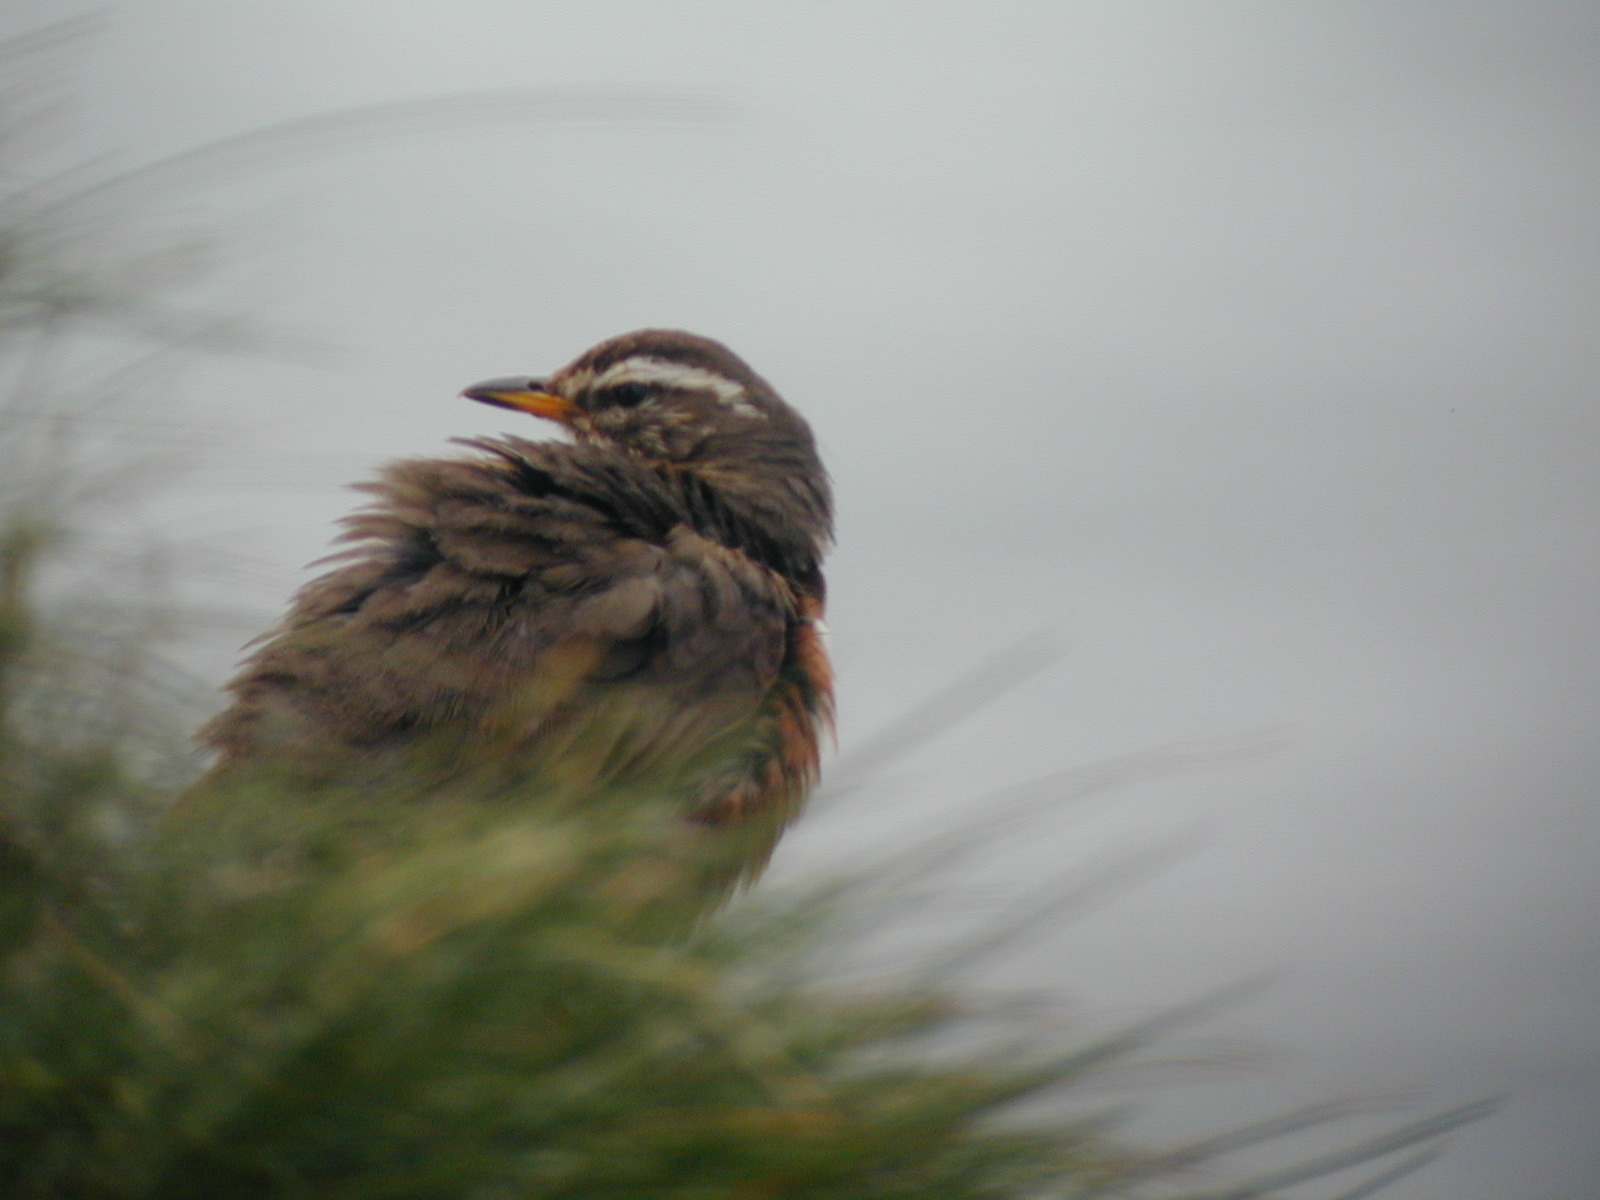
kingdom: Animalia
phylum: Chordata
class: Aves
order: Passeriformes
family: Turdidae
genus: Turdus
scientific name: Turdus iliacus
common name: Redwing
